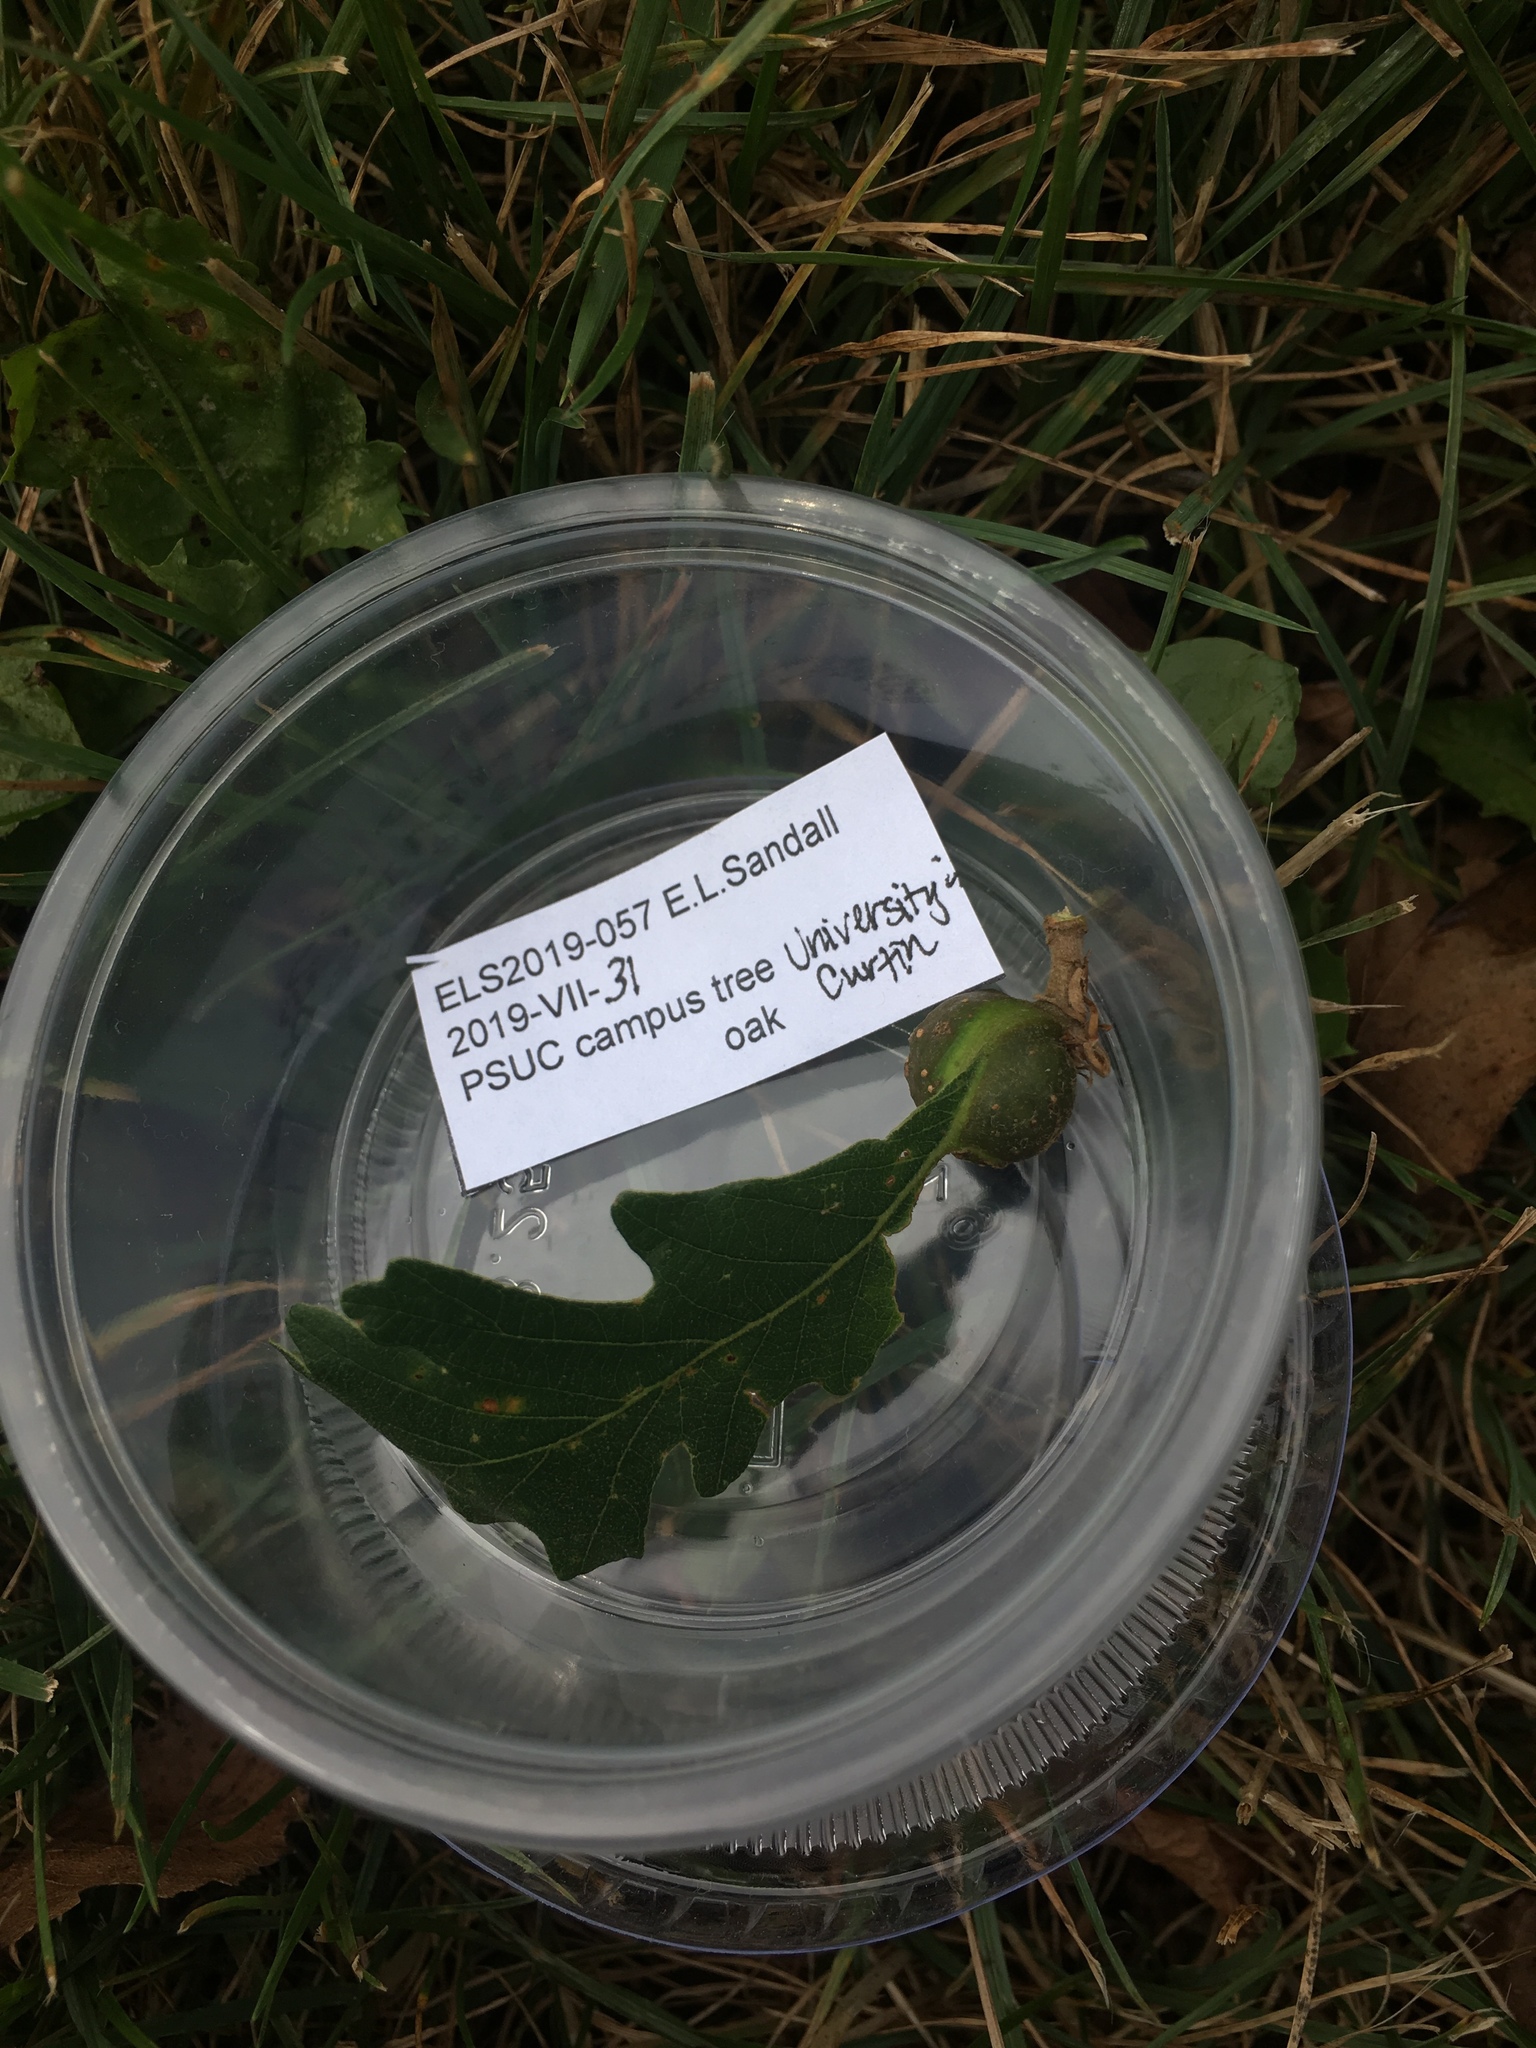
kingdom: Animalia
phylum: Arthropoda
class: Insecta
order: Hymenoptera
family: Cynipidae
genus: Andricus
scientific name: Andricus
